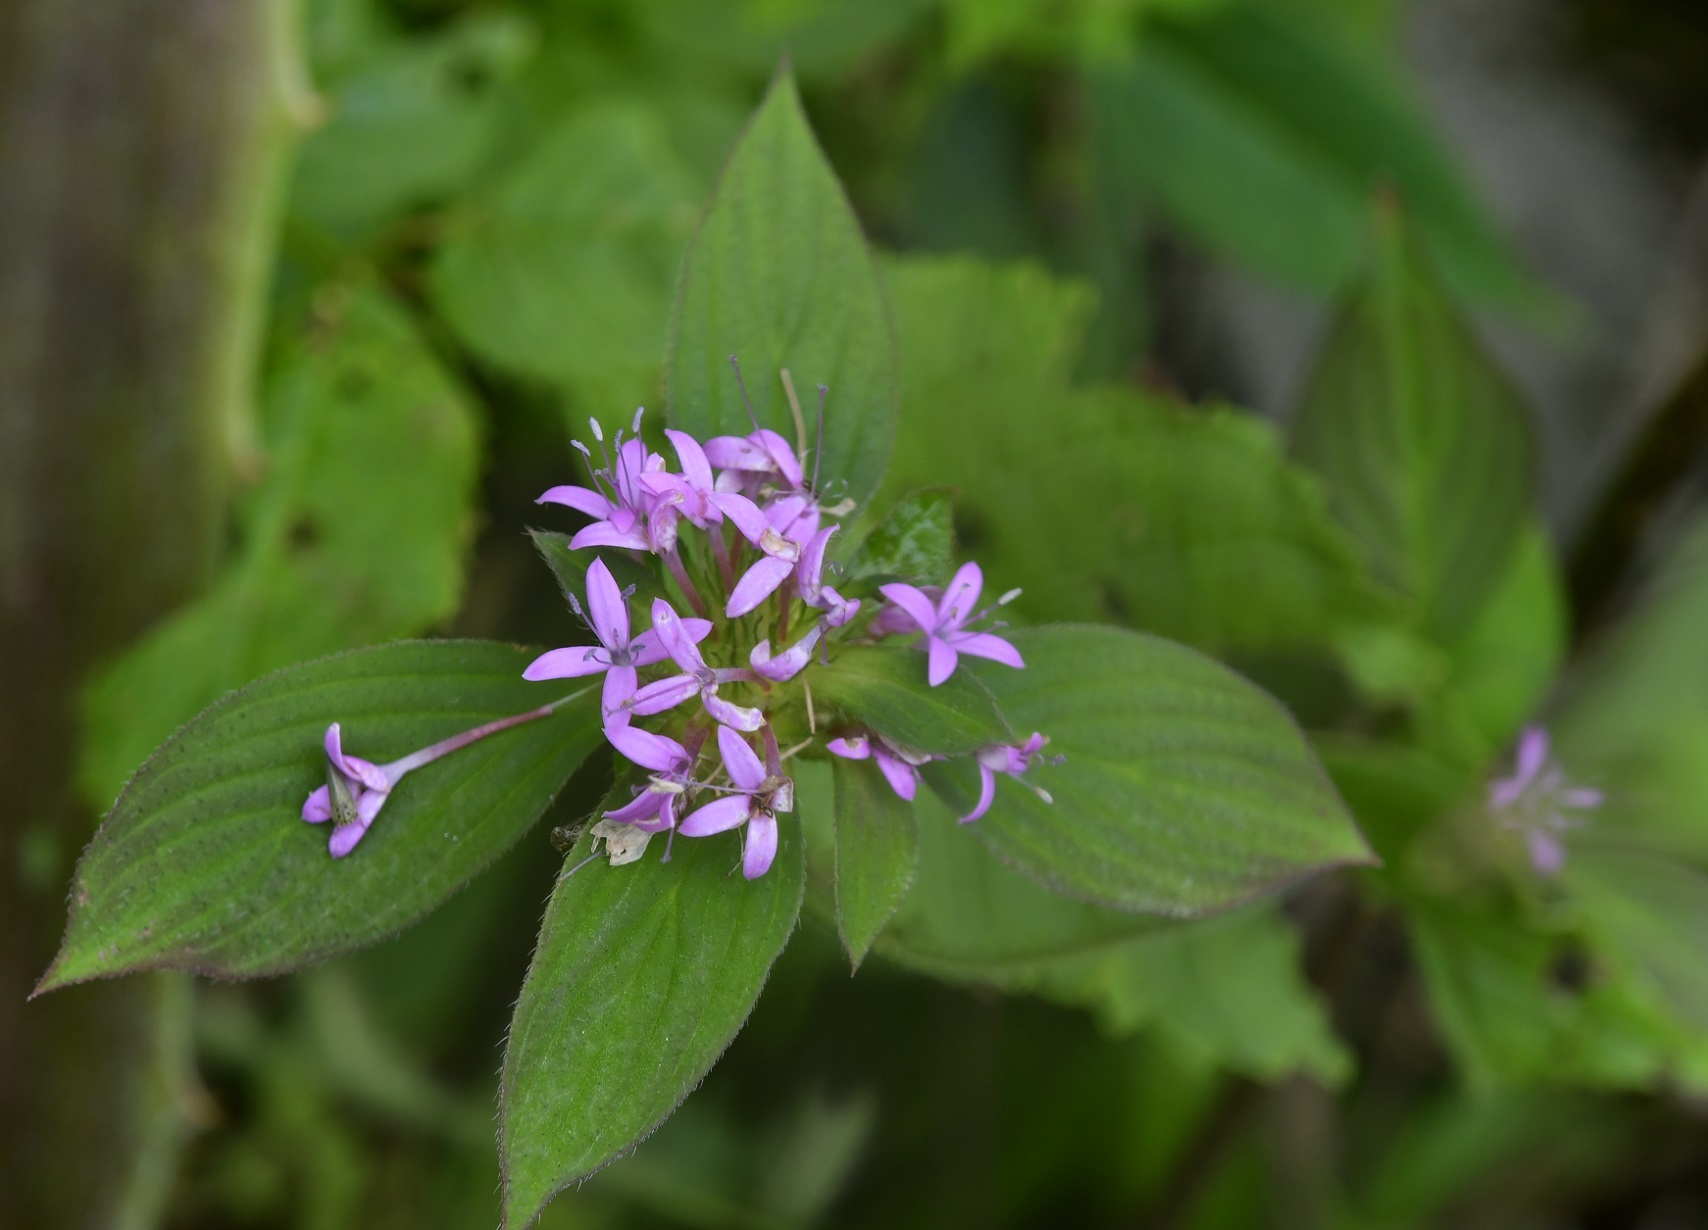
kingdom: Plantae
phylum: Tracheophyta
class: Magnoliopsida
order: Gentianales
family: Rubiaceae
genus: Crusea
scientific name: Crusea hispida
